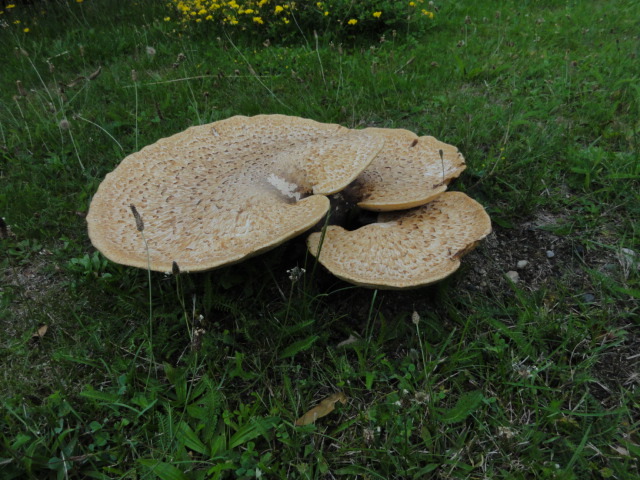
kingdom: Fungi
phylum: Basidiomycota
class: Agaricomycetes
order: Polyporales
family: Polyporaceae
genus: Cerioporus
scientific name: Cerioporus squamosus
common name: Dryad's saddle
